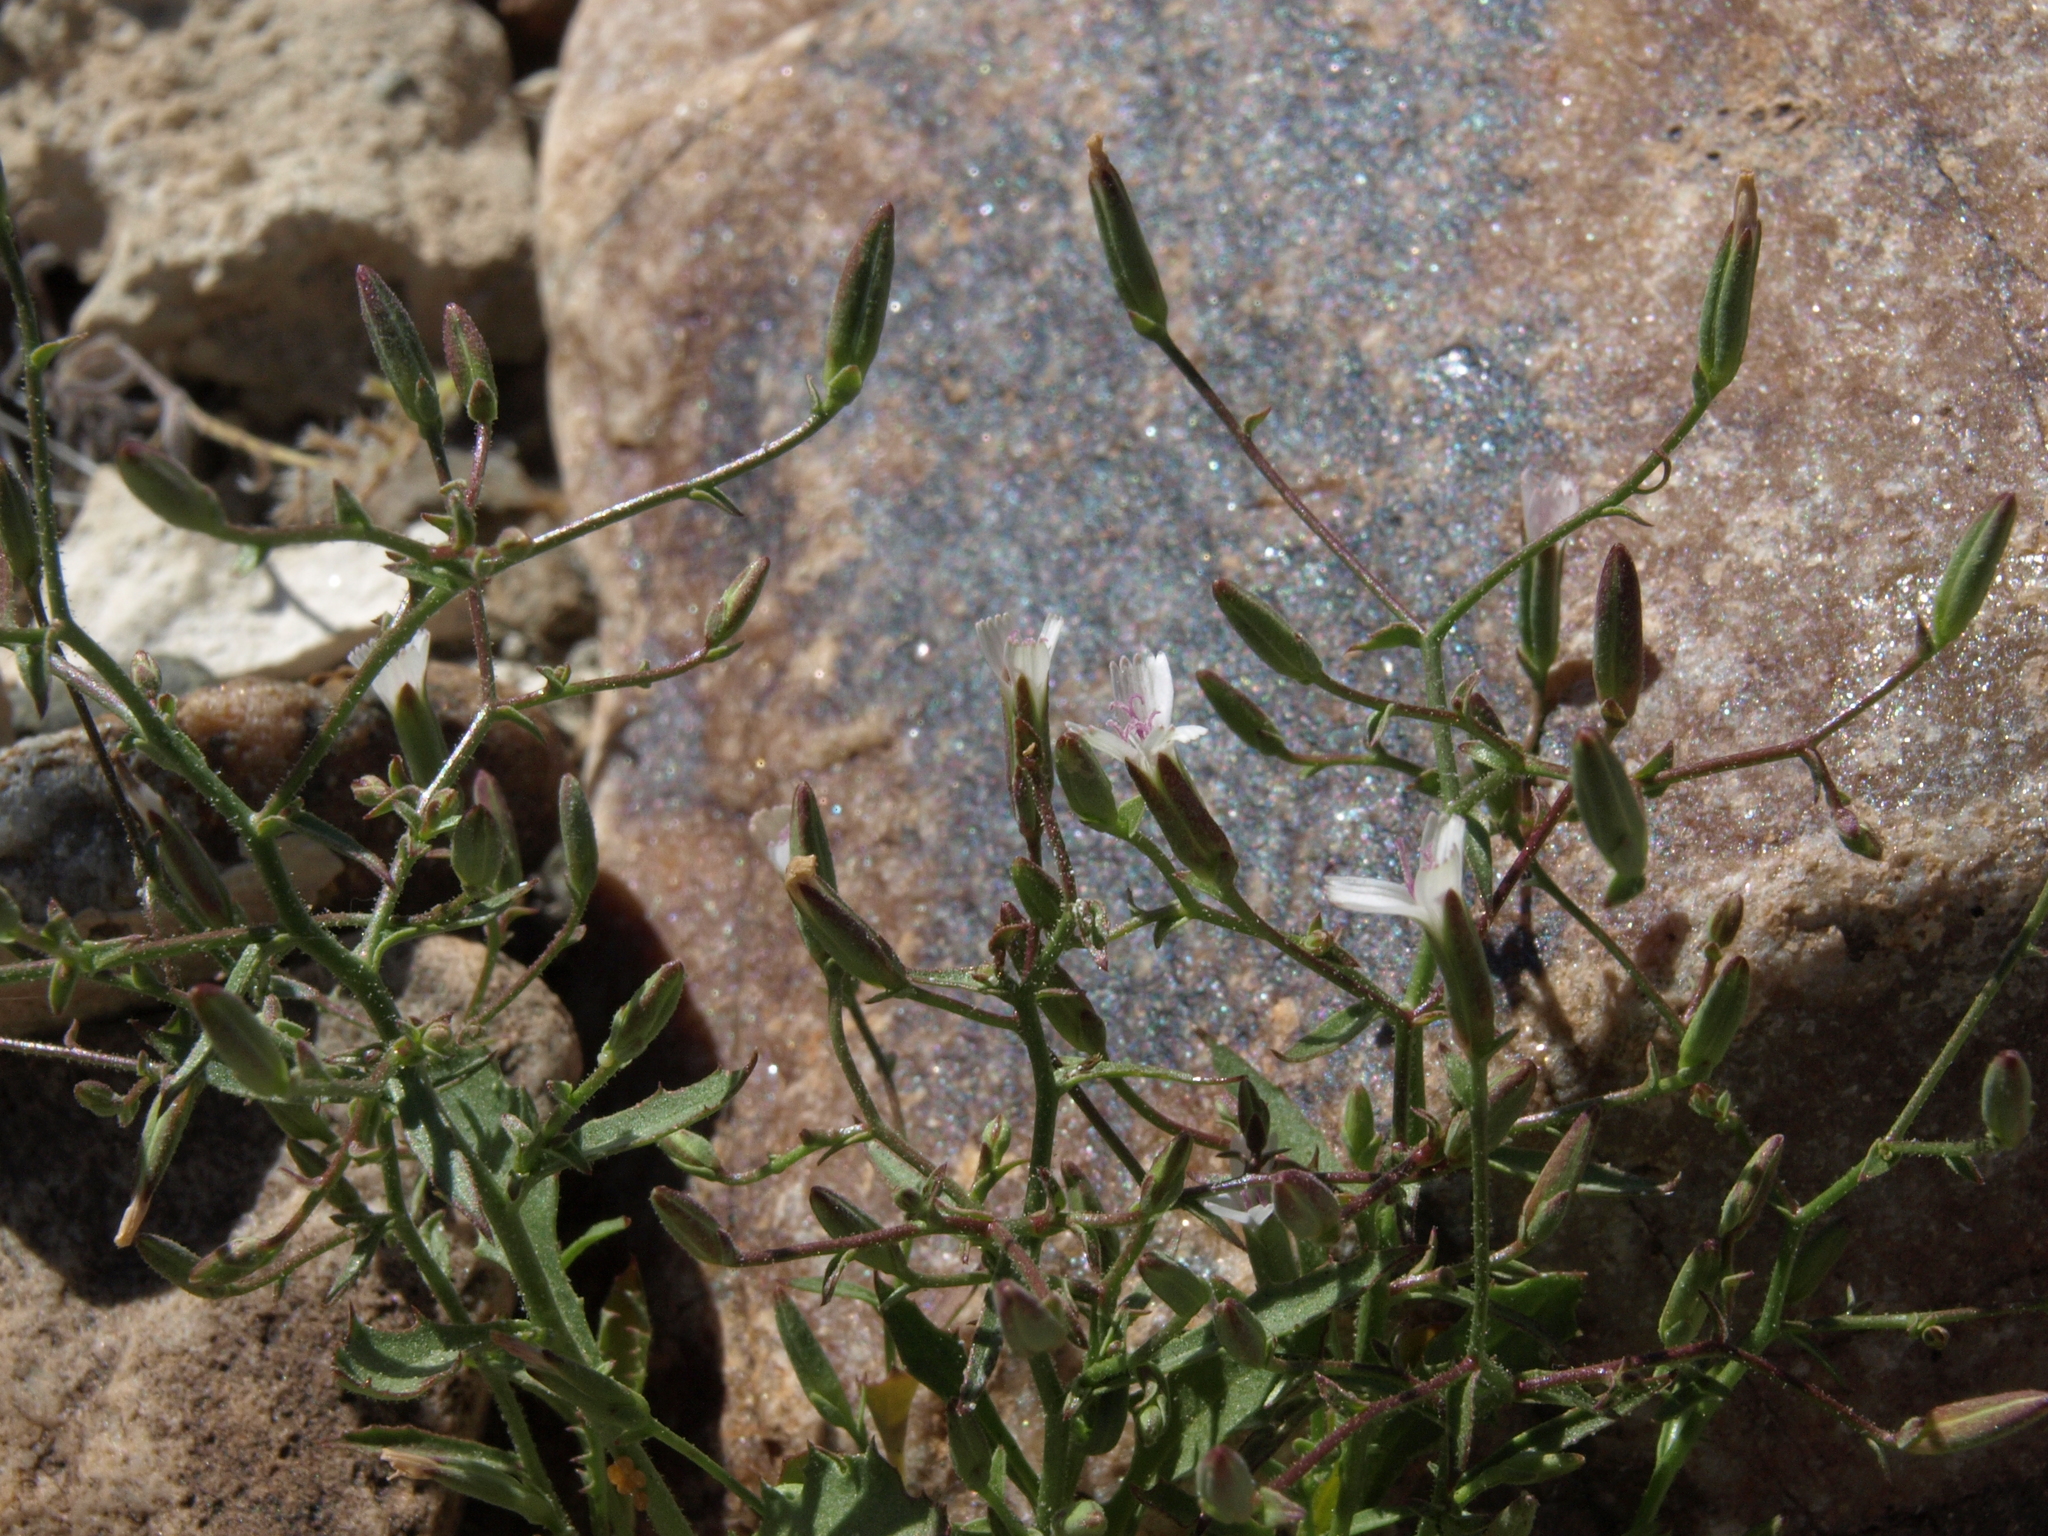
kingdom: Plantae
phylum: Tracheophyta
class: Magnoliopsida
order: Asterales
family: Asteraceae
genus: Lygodesmia
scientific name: Lygodesmia exigua
